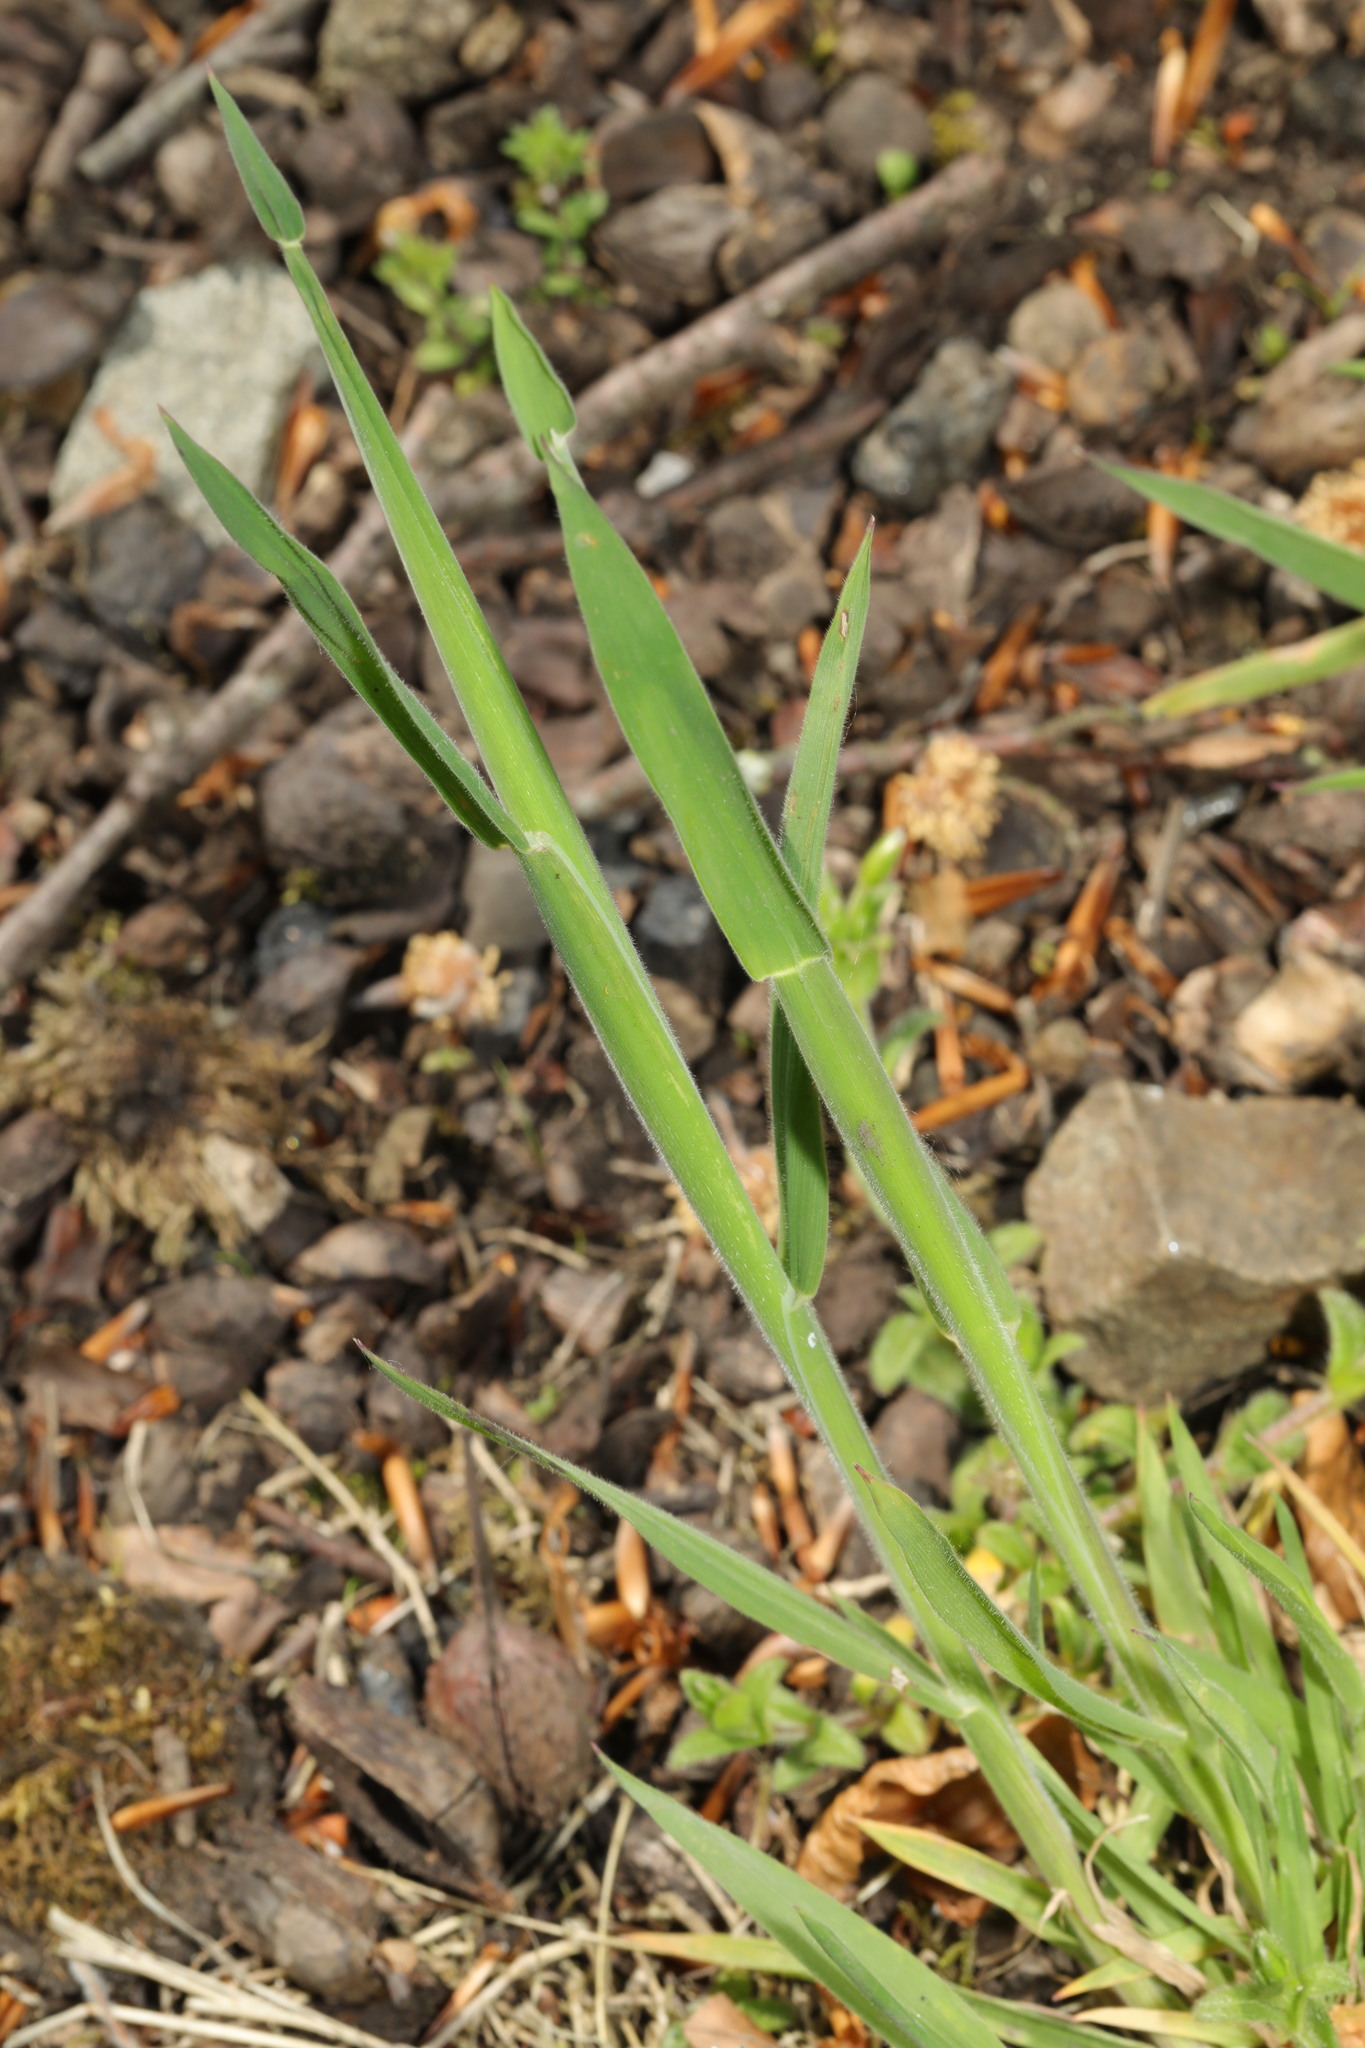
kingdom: Plantae
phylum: Tracheophyta
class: Liliopsida
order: Poales
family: Poaceae
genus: Holcus
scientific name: Holcus lanatus
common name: Yorkshire-fog
